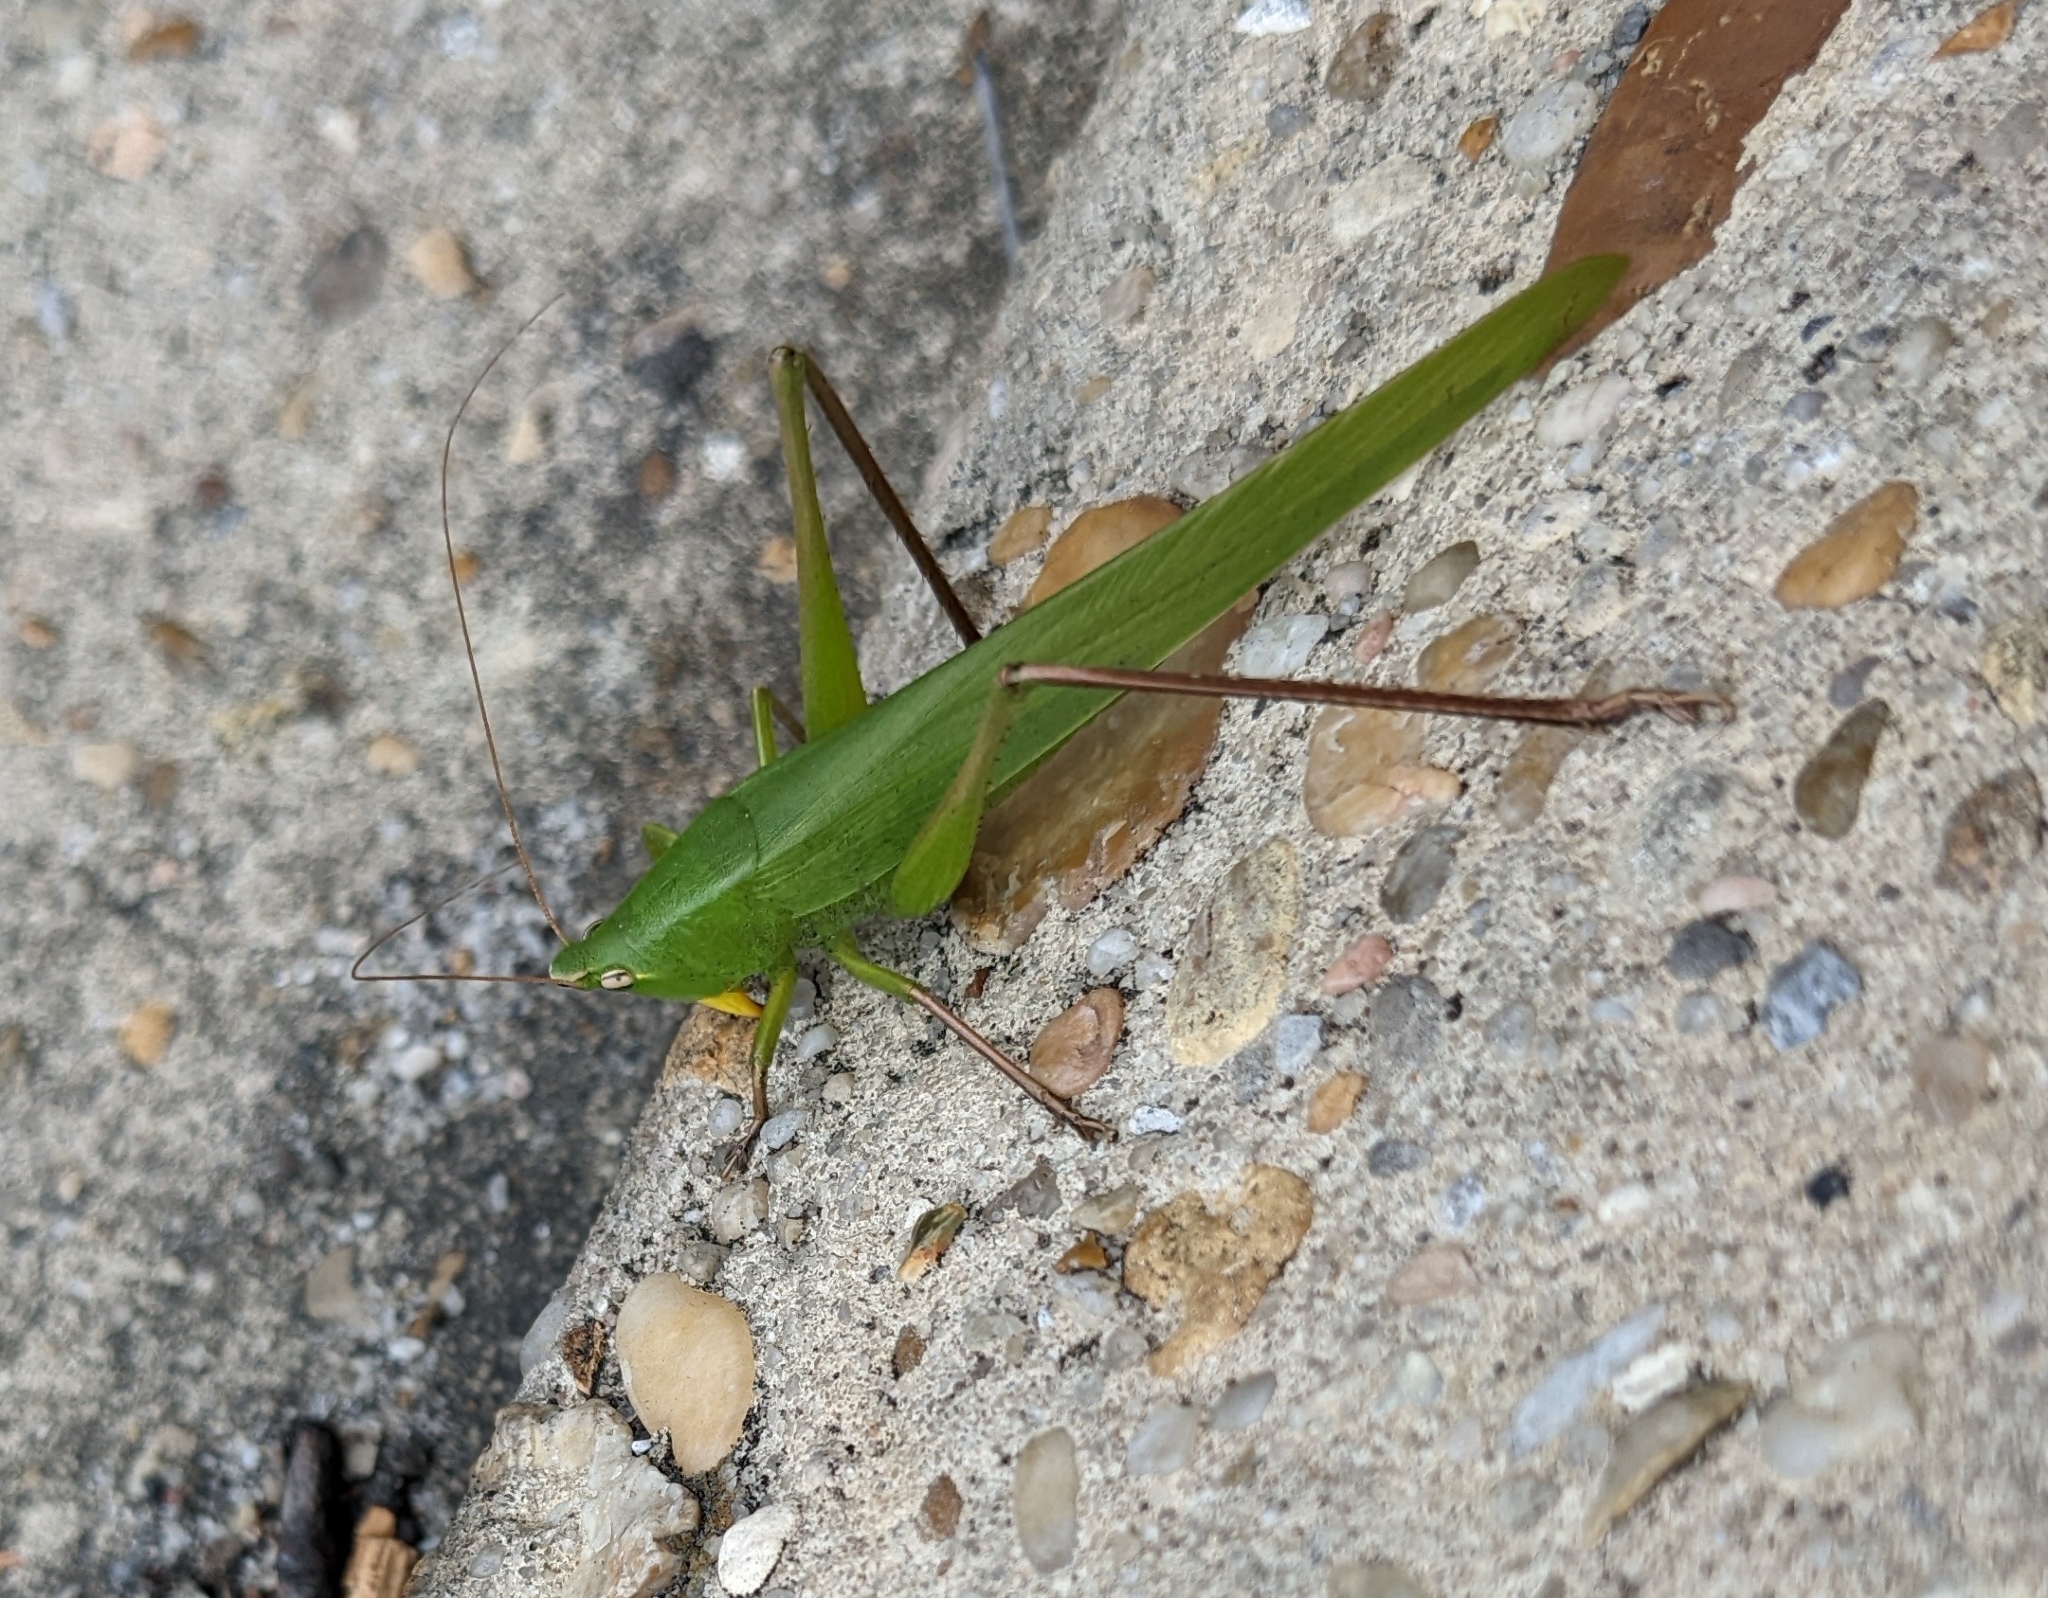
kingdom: Animalia
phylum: Arthropoda
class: Insecta
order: Orthoptera
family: Tettigoniidae
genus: Neoconocephalus
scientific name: Neoconocephalus triops
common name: Broad-tipped conehead
